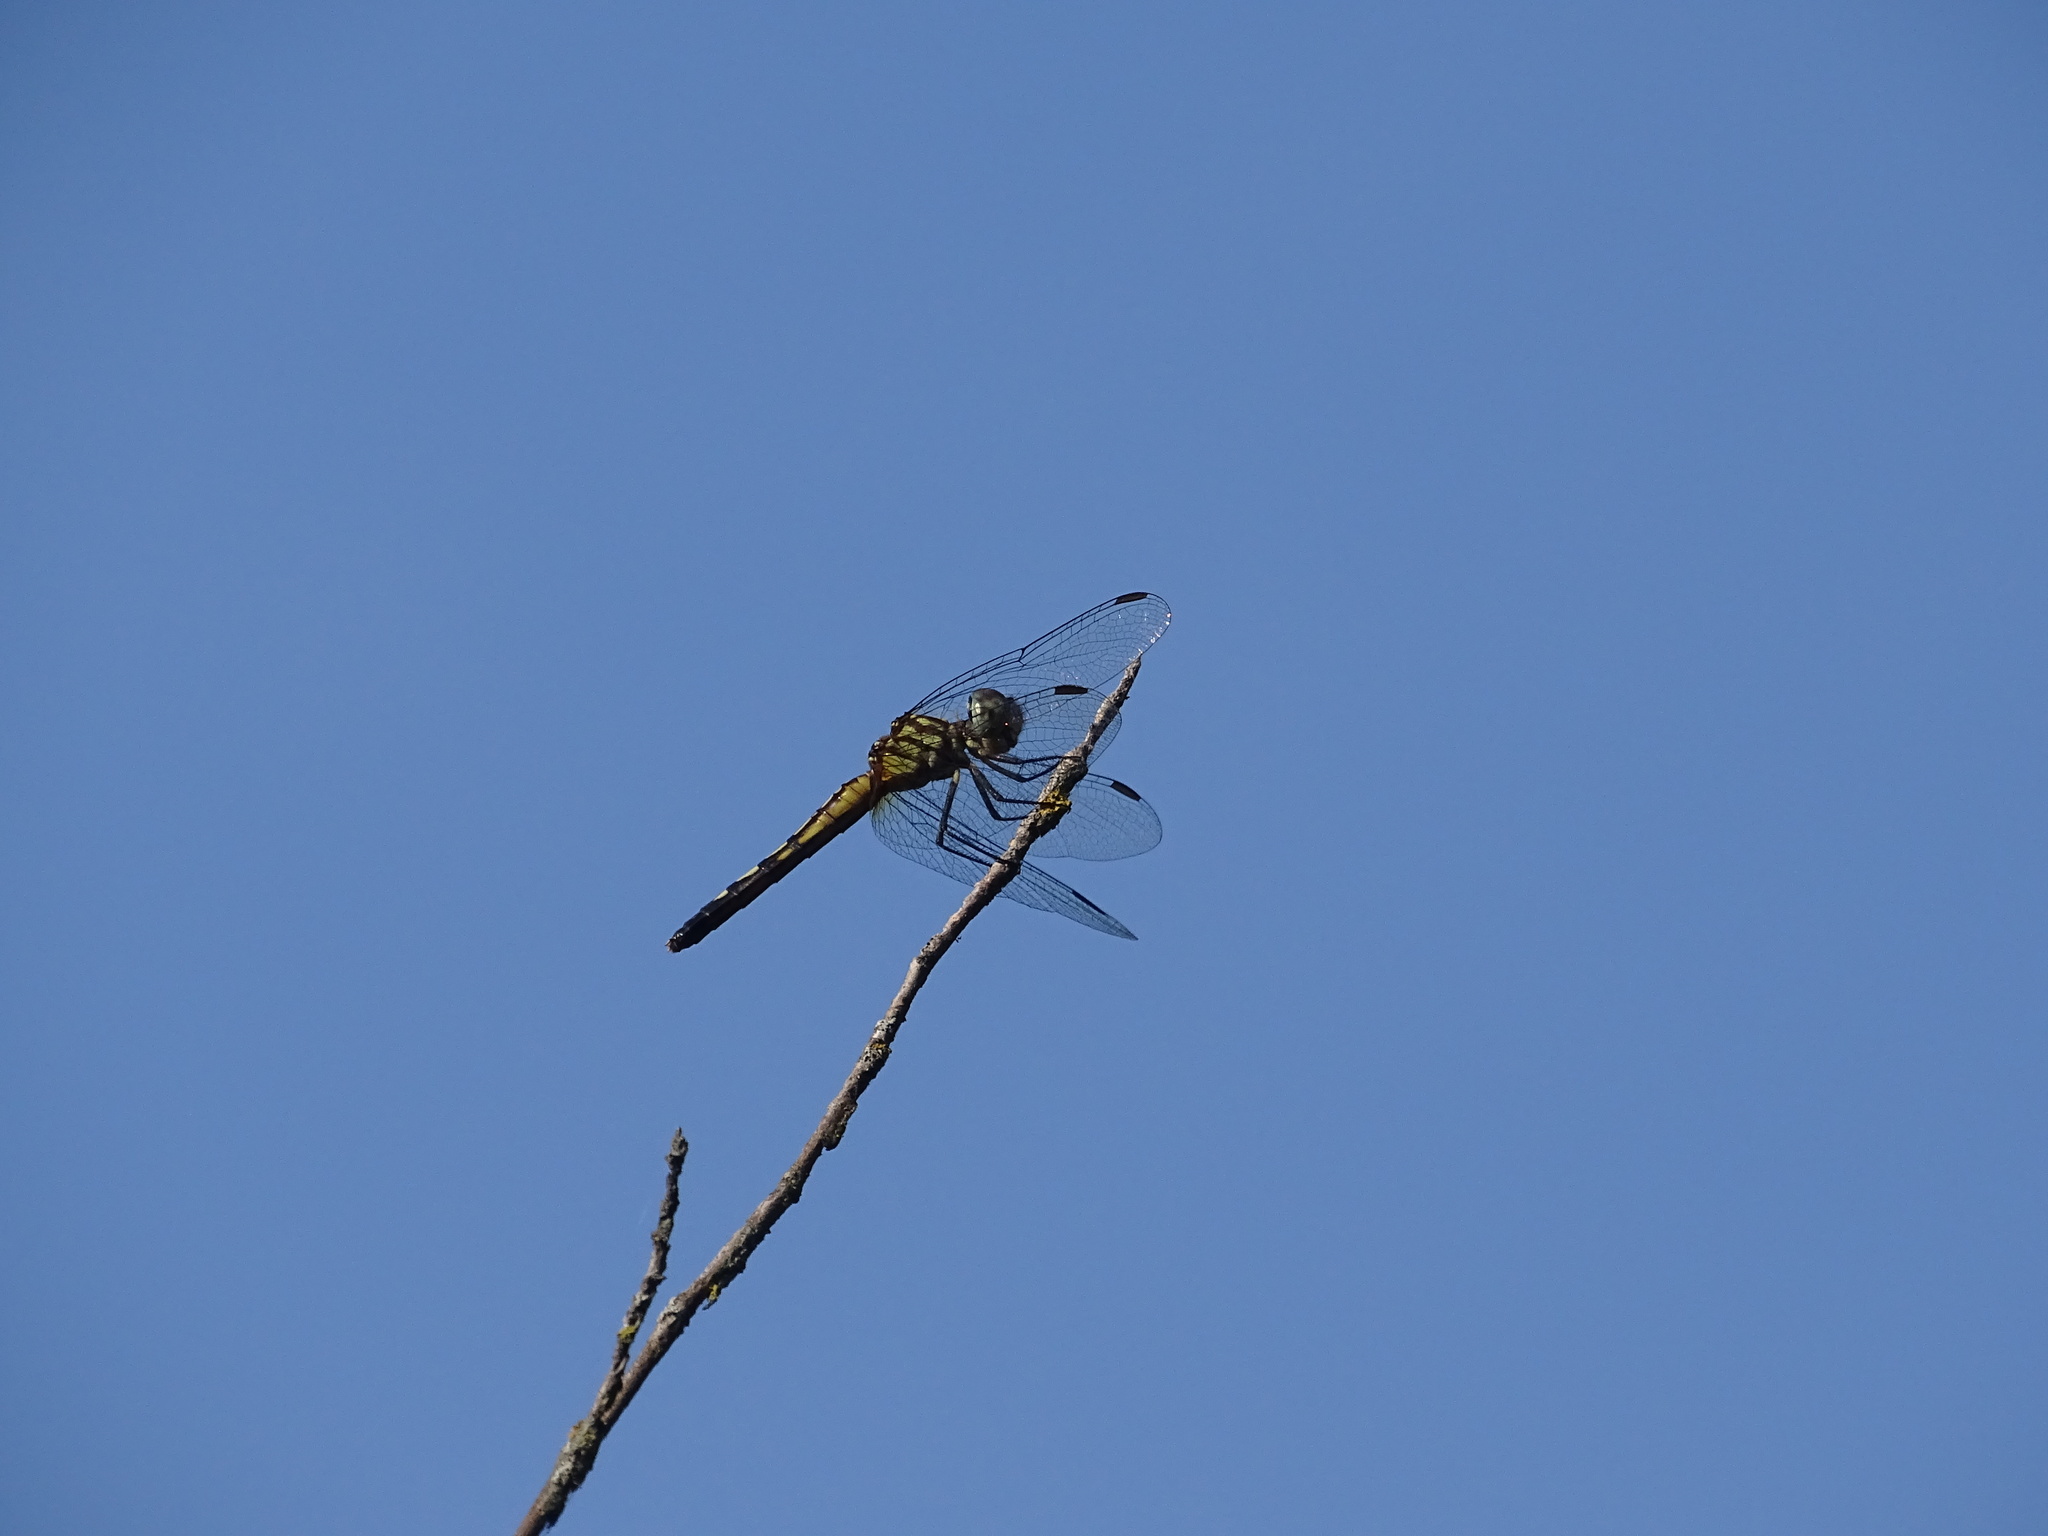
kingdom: Animalia
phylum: Arthropoda
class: Insecta
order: Odonata
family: Libellulidae
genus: Pachydiplax
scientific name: Pachydiplax longipennis
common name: Blue dasher
